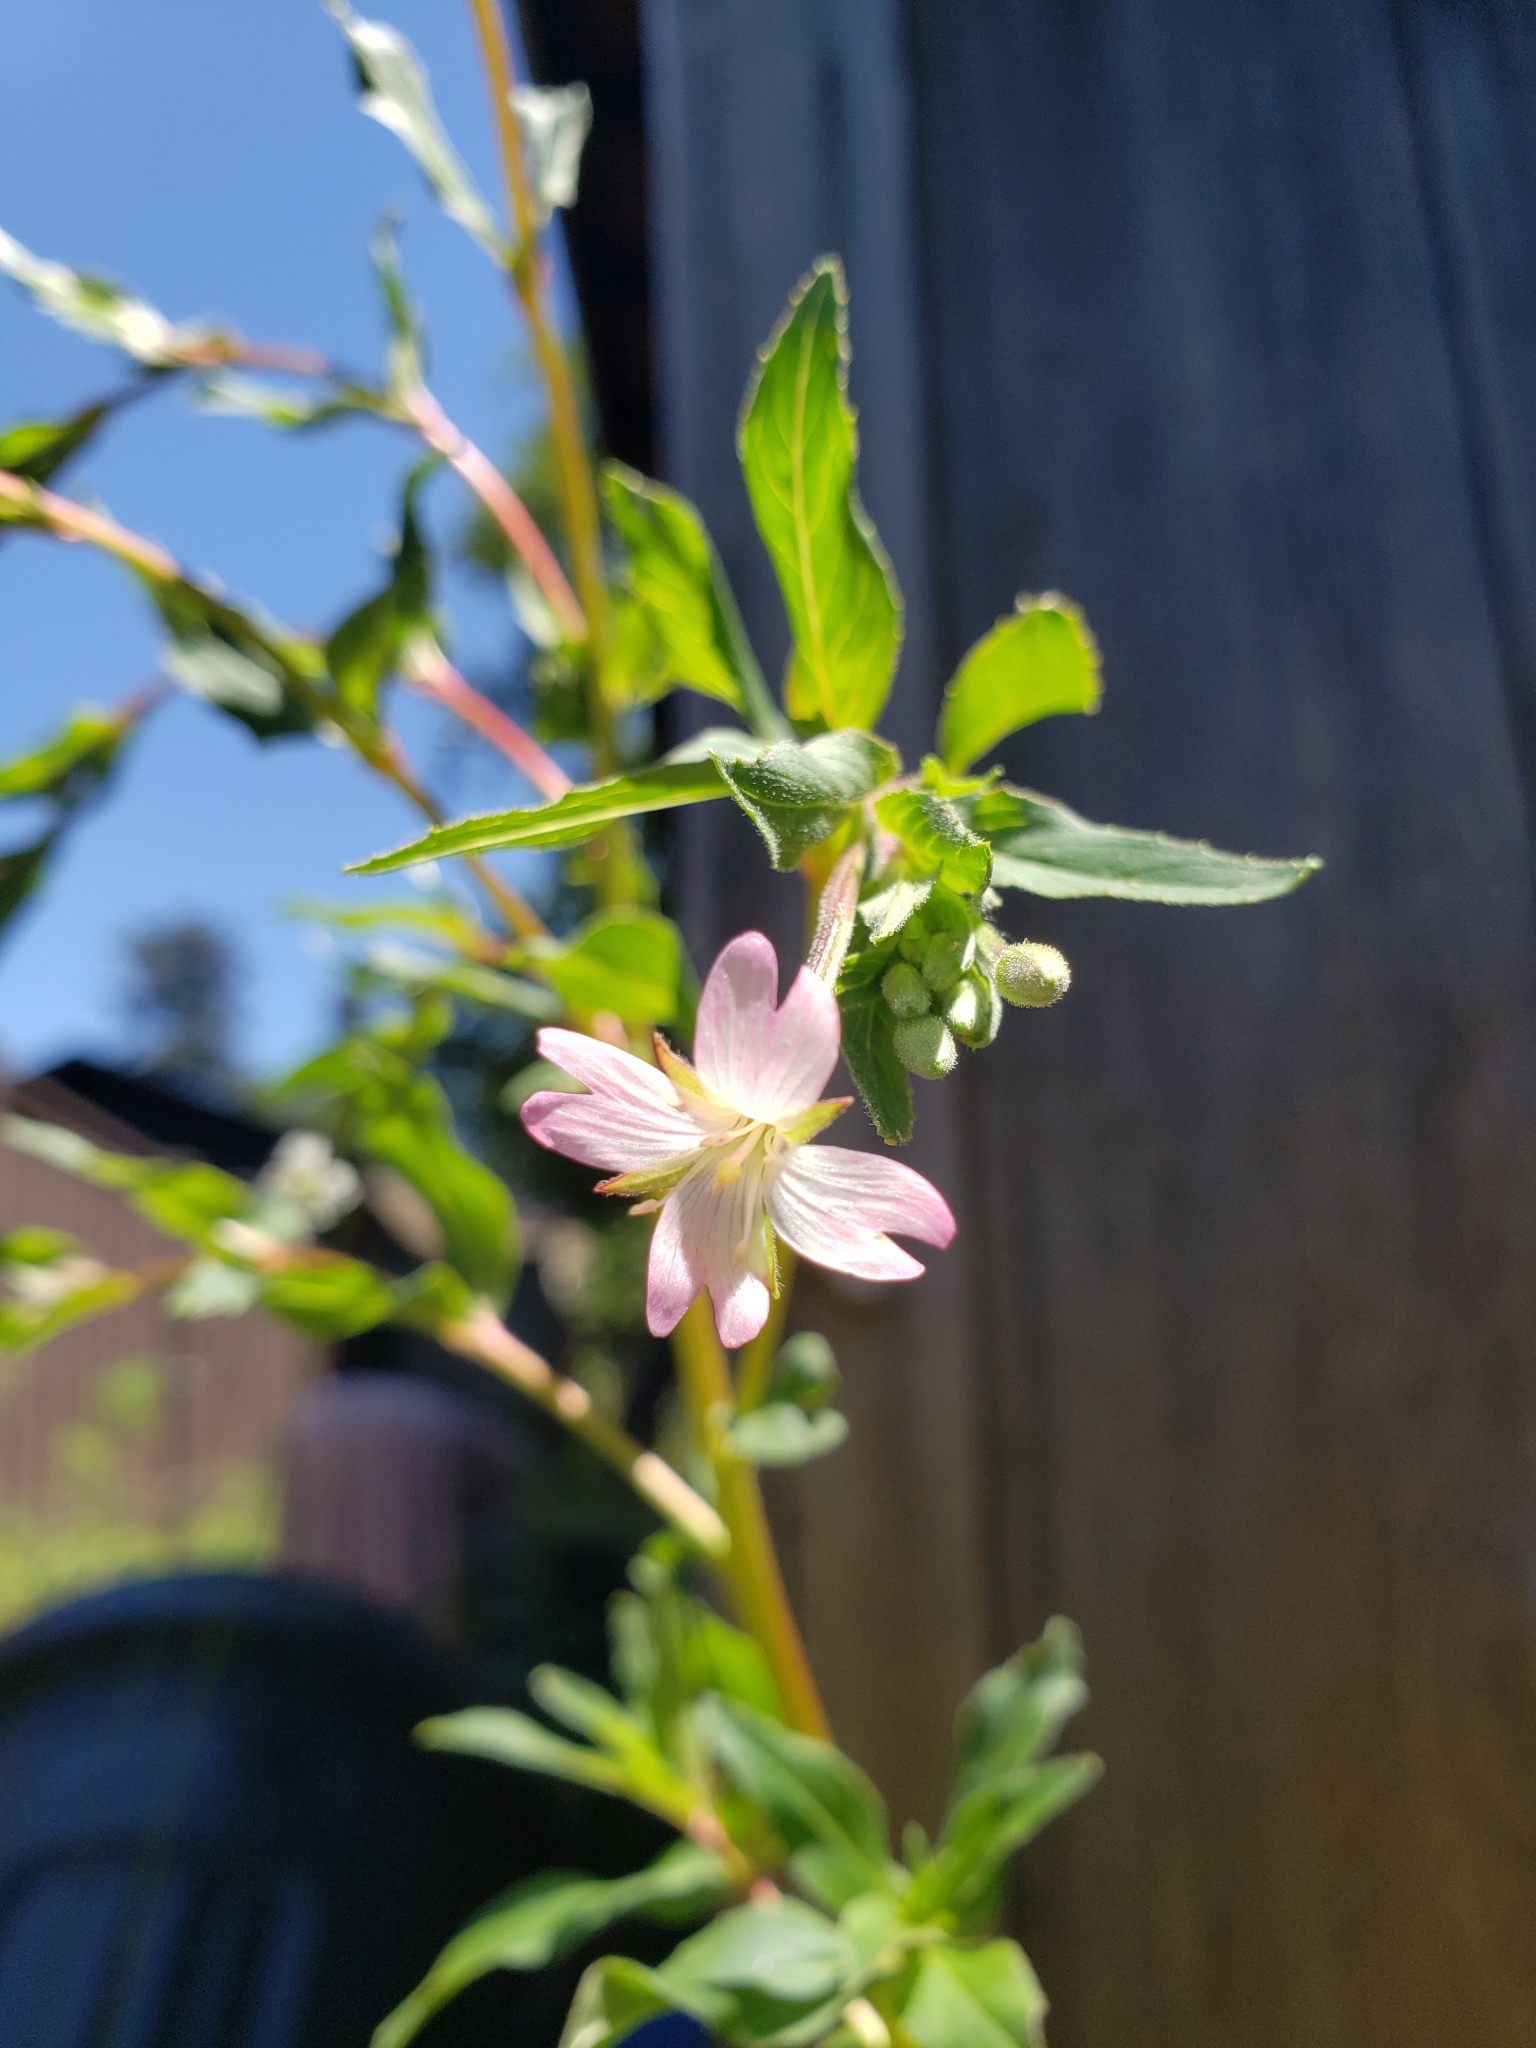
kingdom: Plantae
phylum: Tracheophyta
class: Magnoliopsida
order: Myrtales
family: Onagraceae
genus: Epilobium
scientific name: Epilobium ciliatum
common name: American willowherb
